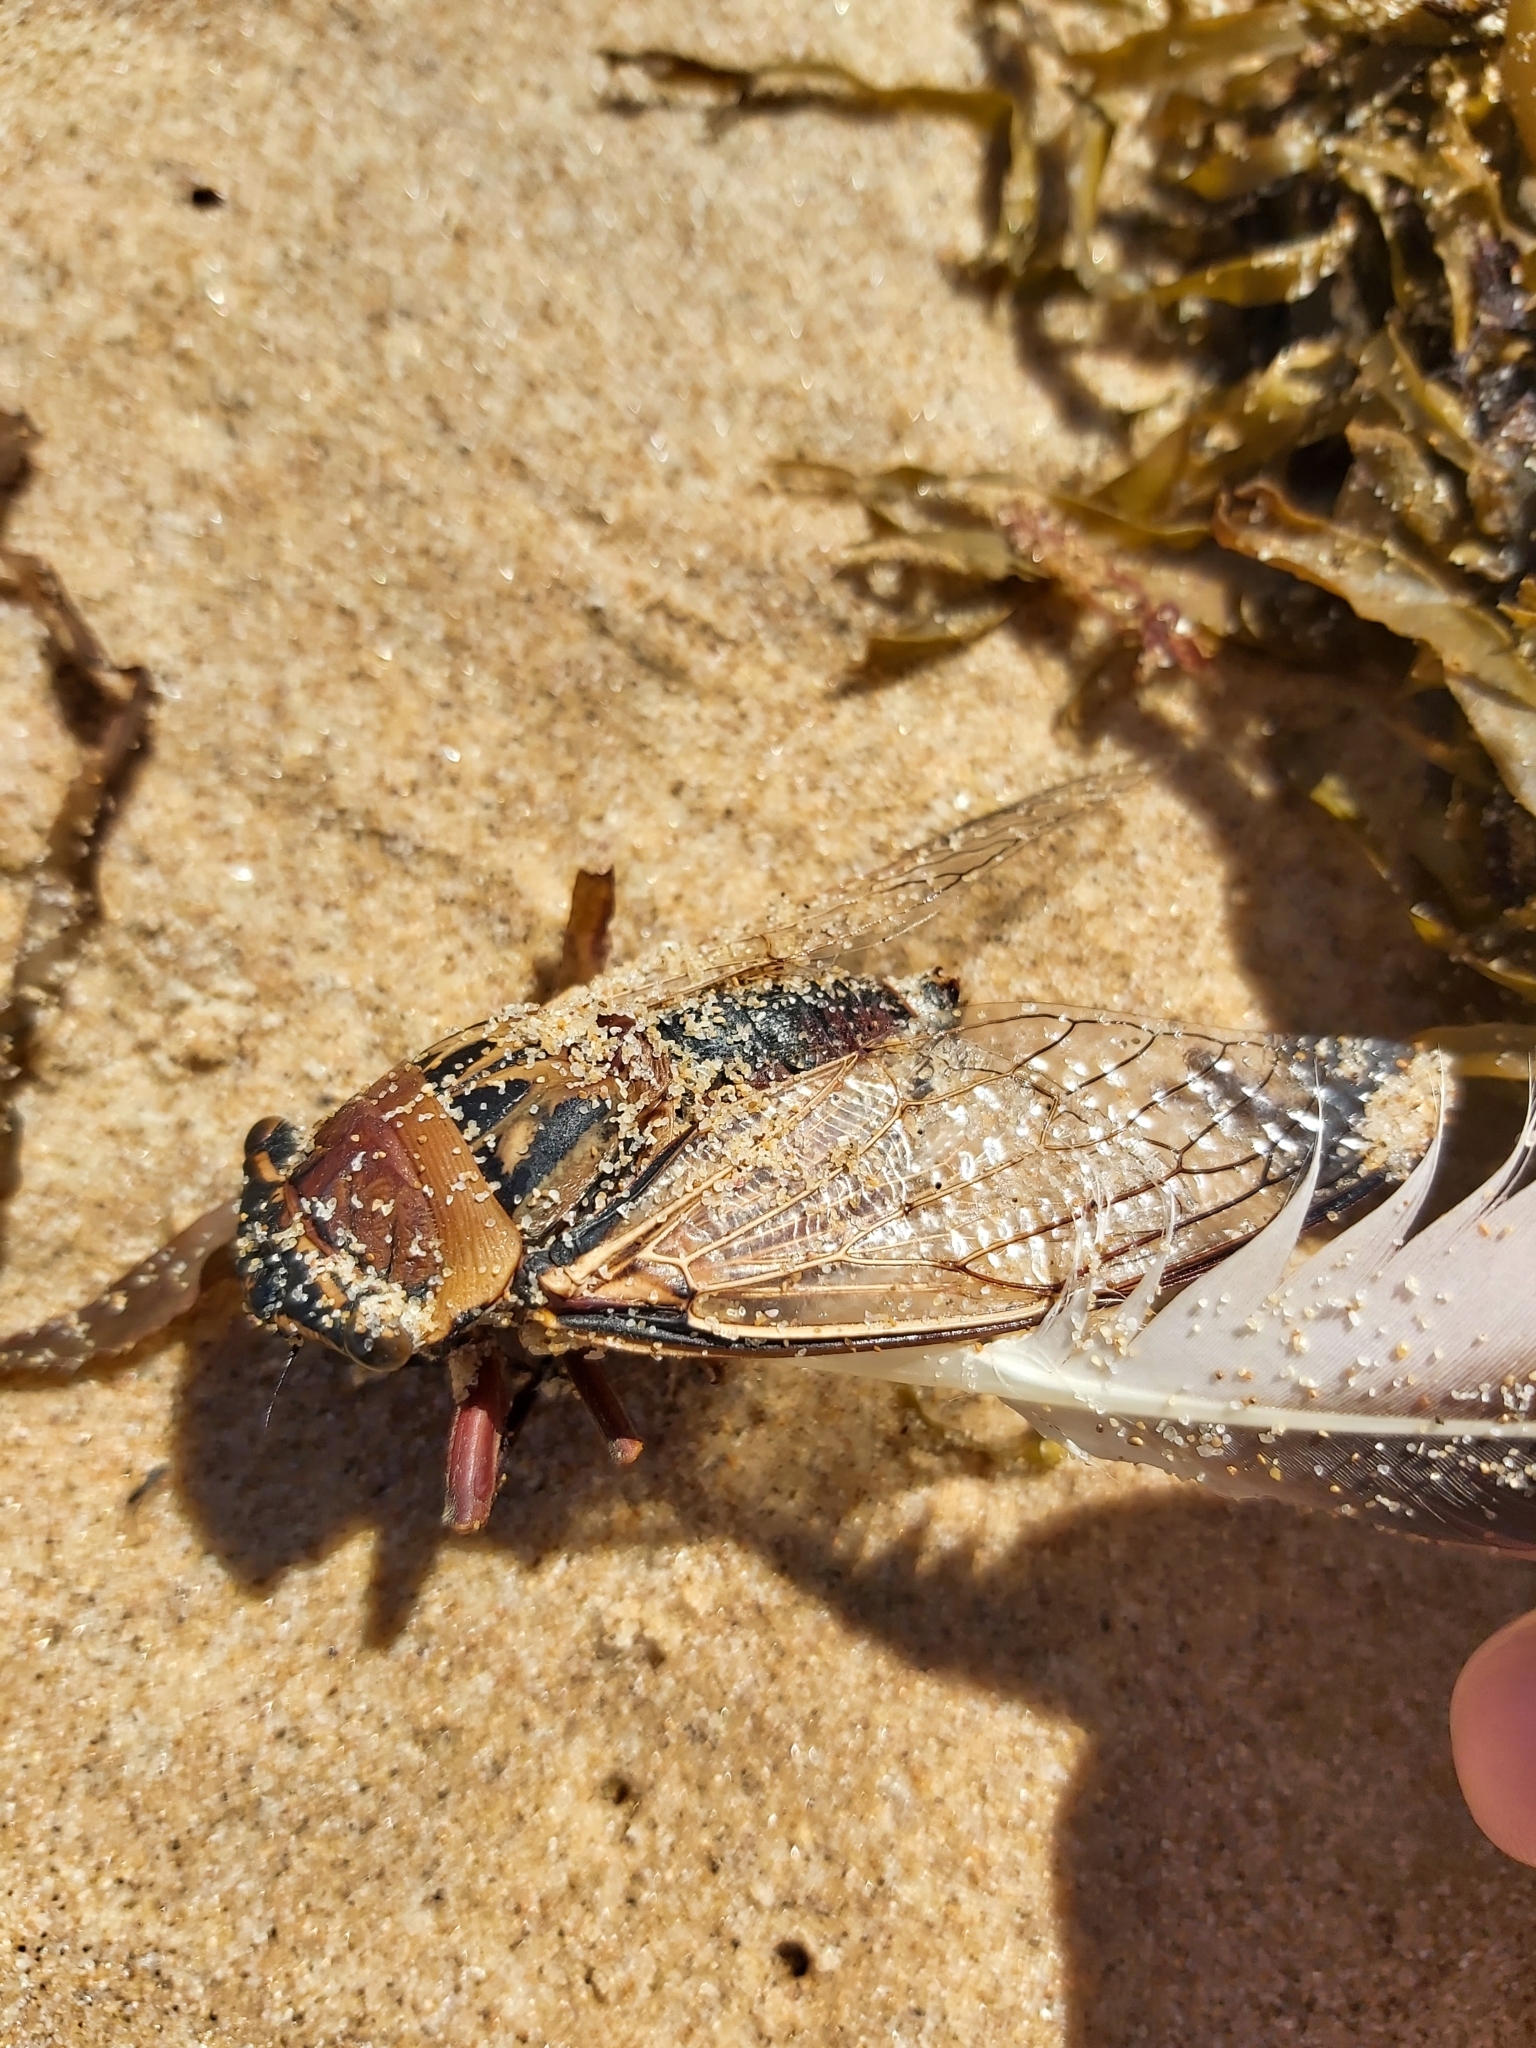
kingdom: Animalia
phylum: Arthropoda
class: Insecta
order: Hemiptera
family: Cicadidae
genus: Thopha
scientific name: Thopha saccata
